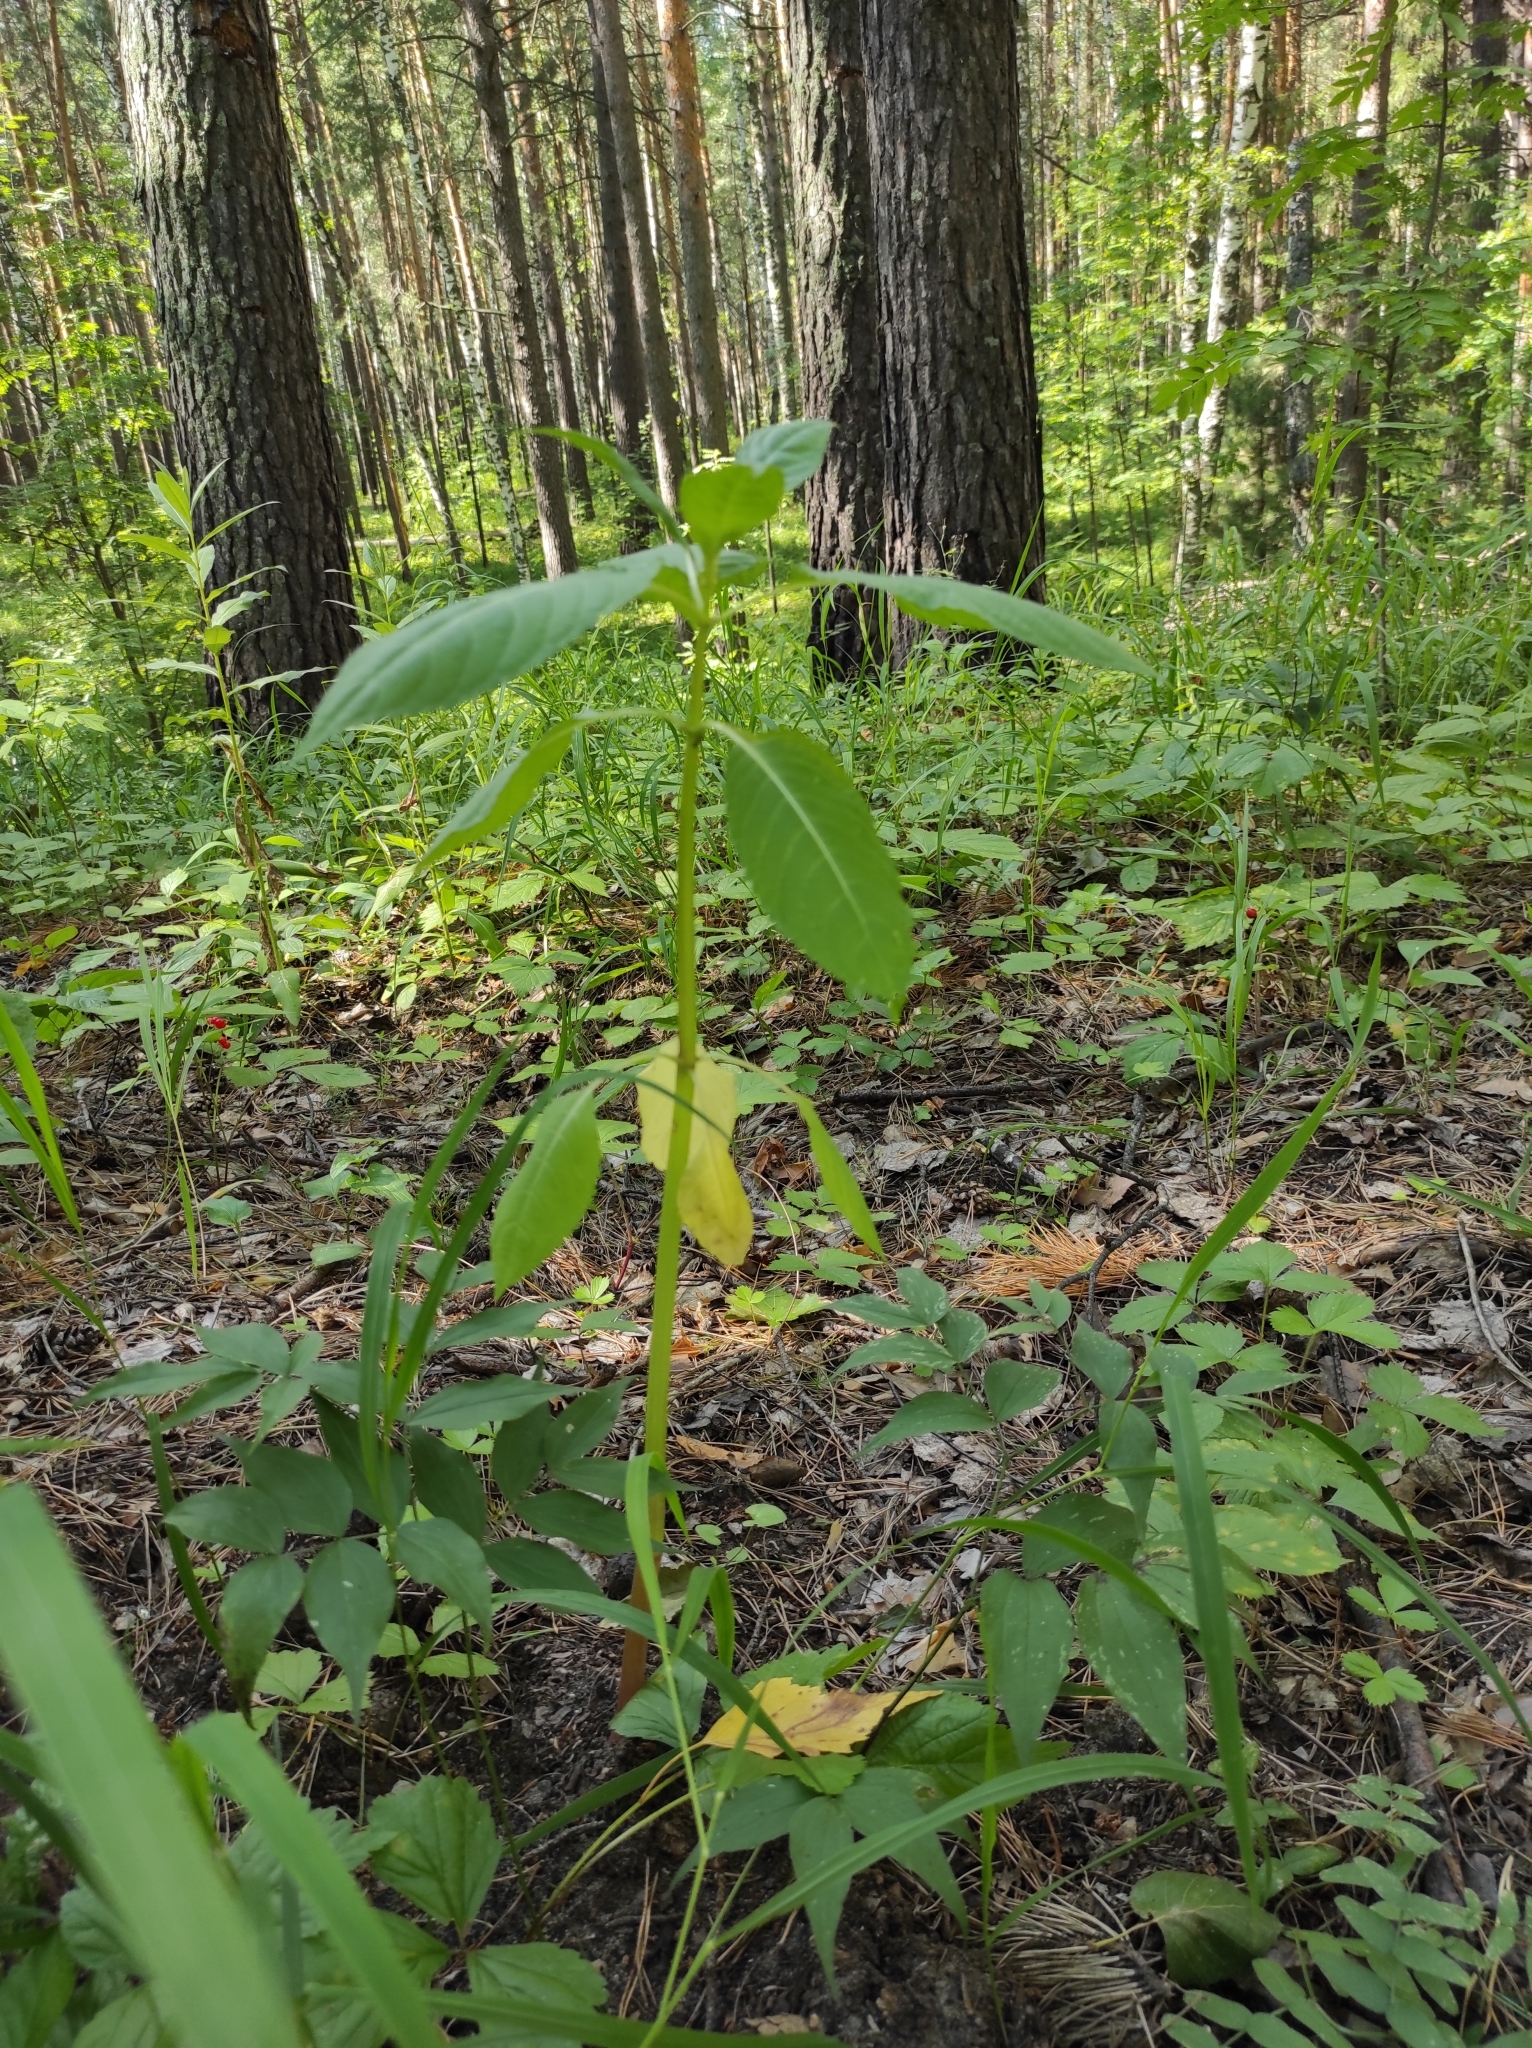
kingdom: Plantae
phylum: Tracheophyta
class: Magnoliopsida
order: Ericales
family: Balsaminaceae
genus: Impatiens
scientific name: Impatiens glandulifera
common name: Himalayan balsam
